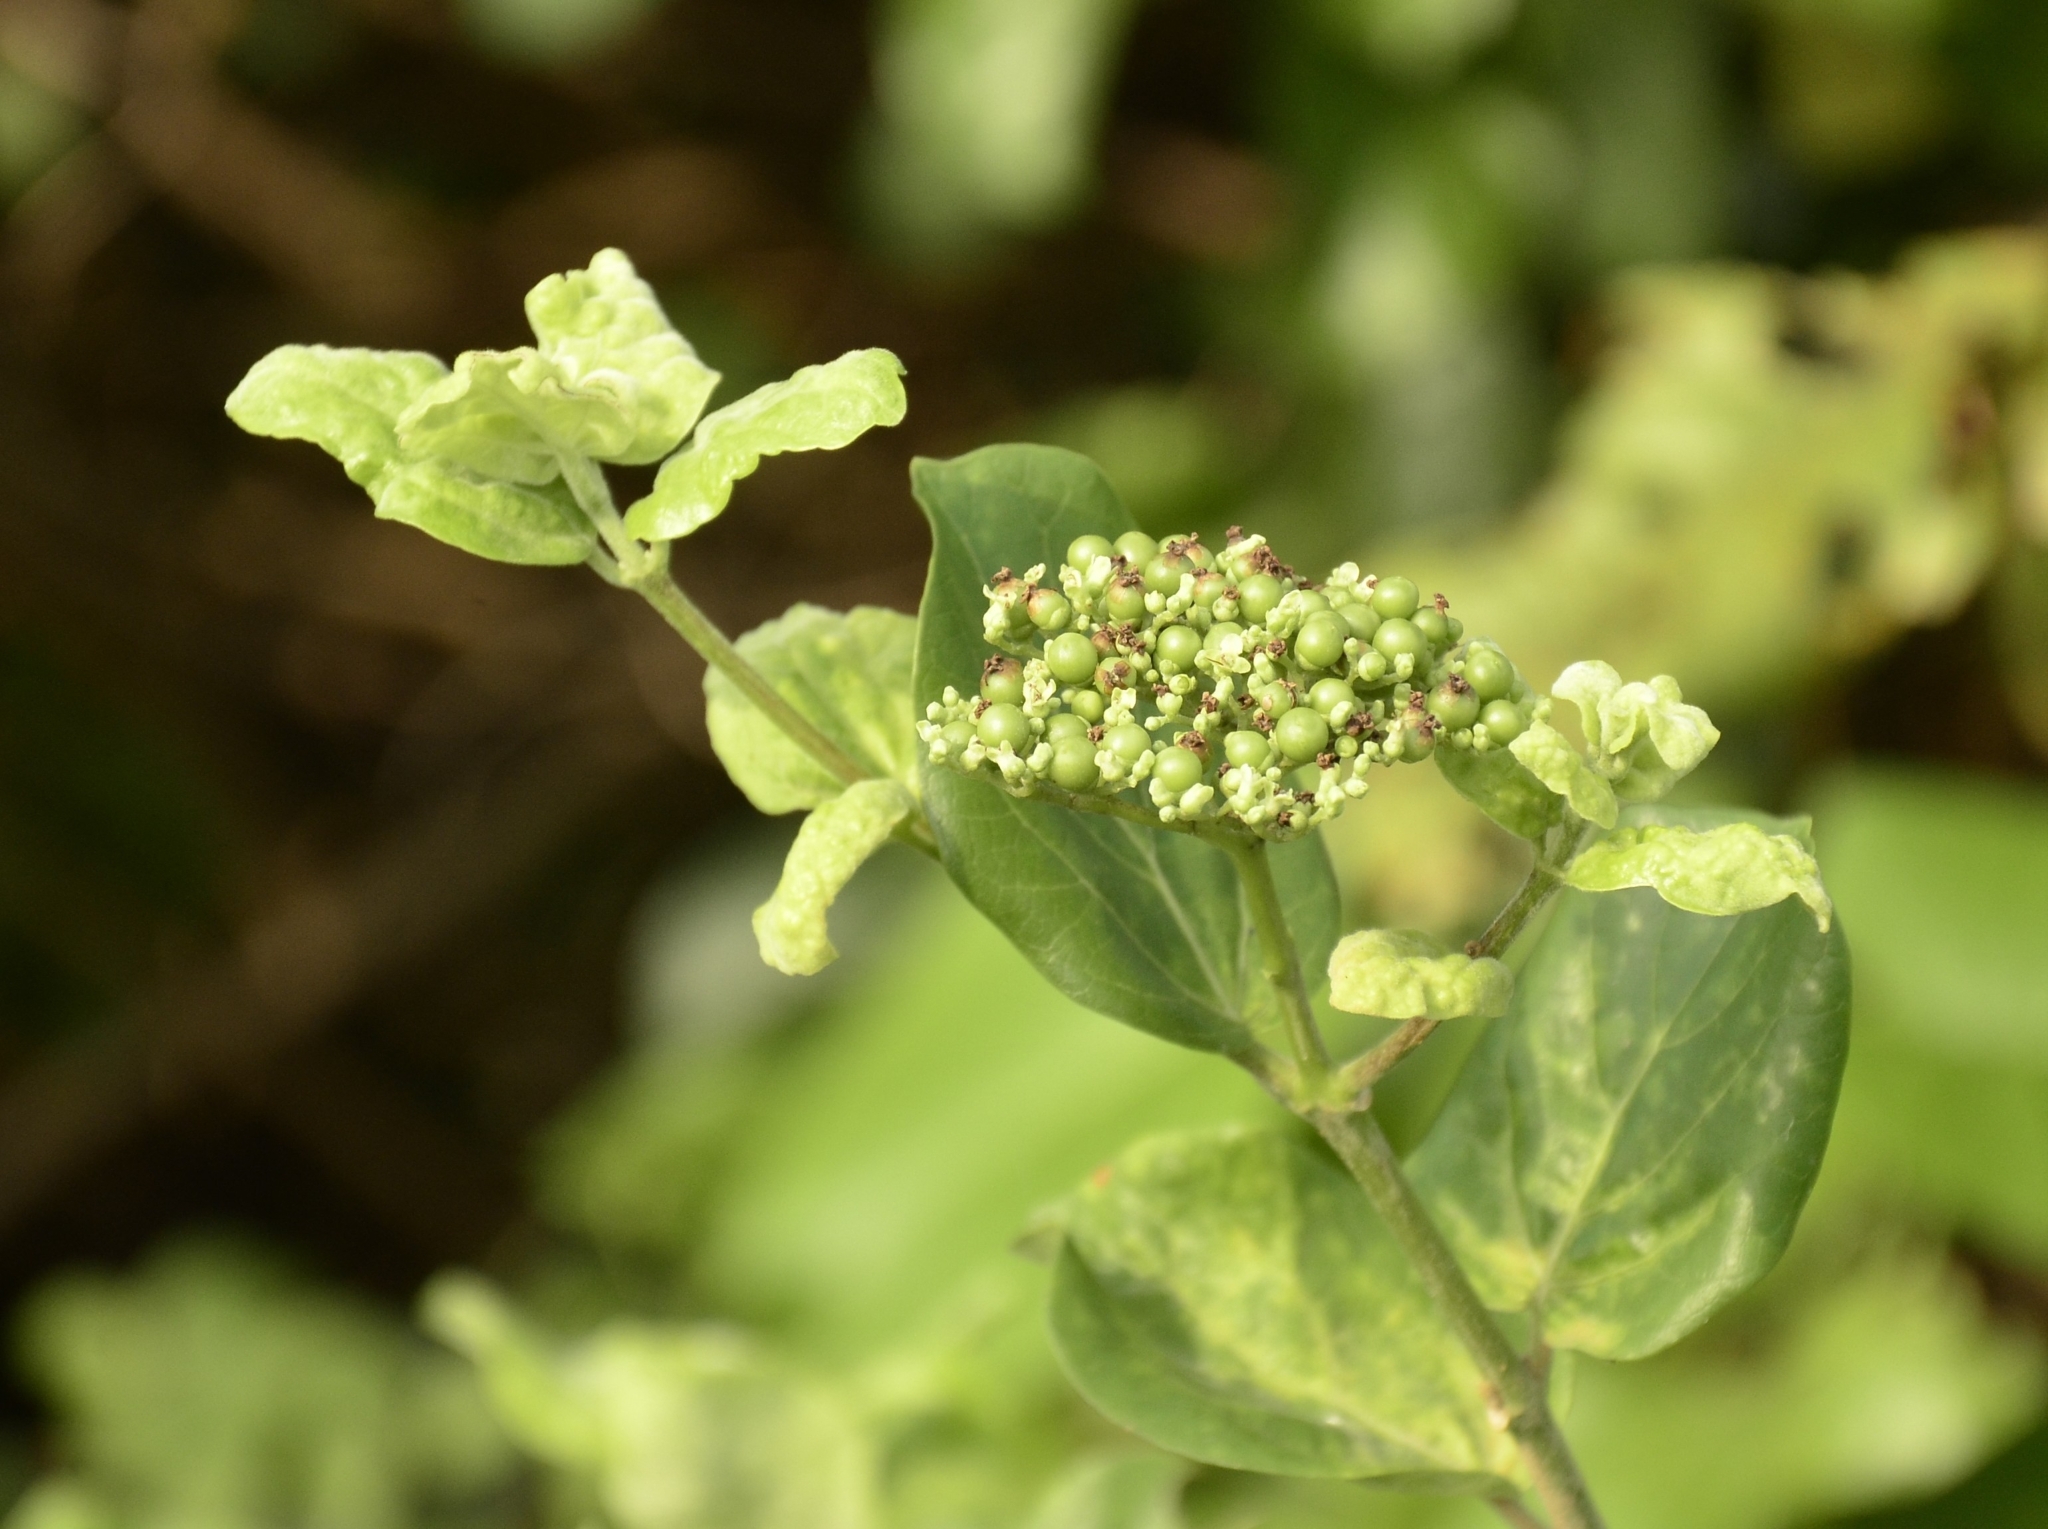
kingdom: Plantae
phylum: Tracheophyta
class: Magnoliopsida
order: Lamiales
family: Lamiaceae
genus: Premna
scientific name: Premna serratifolia
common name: Bastard guelder
